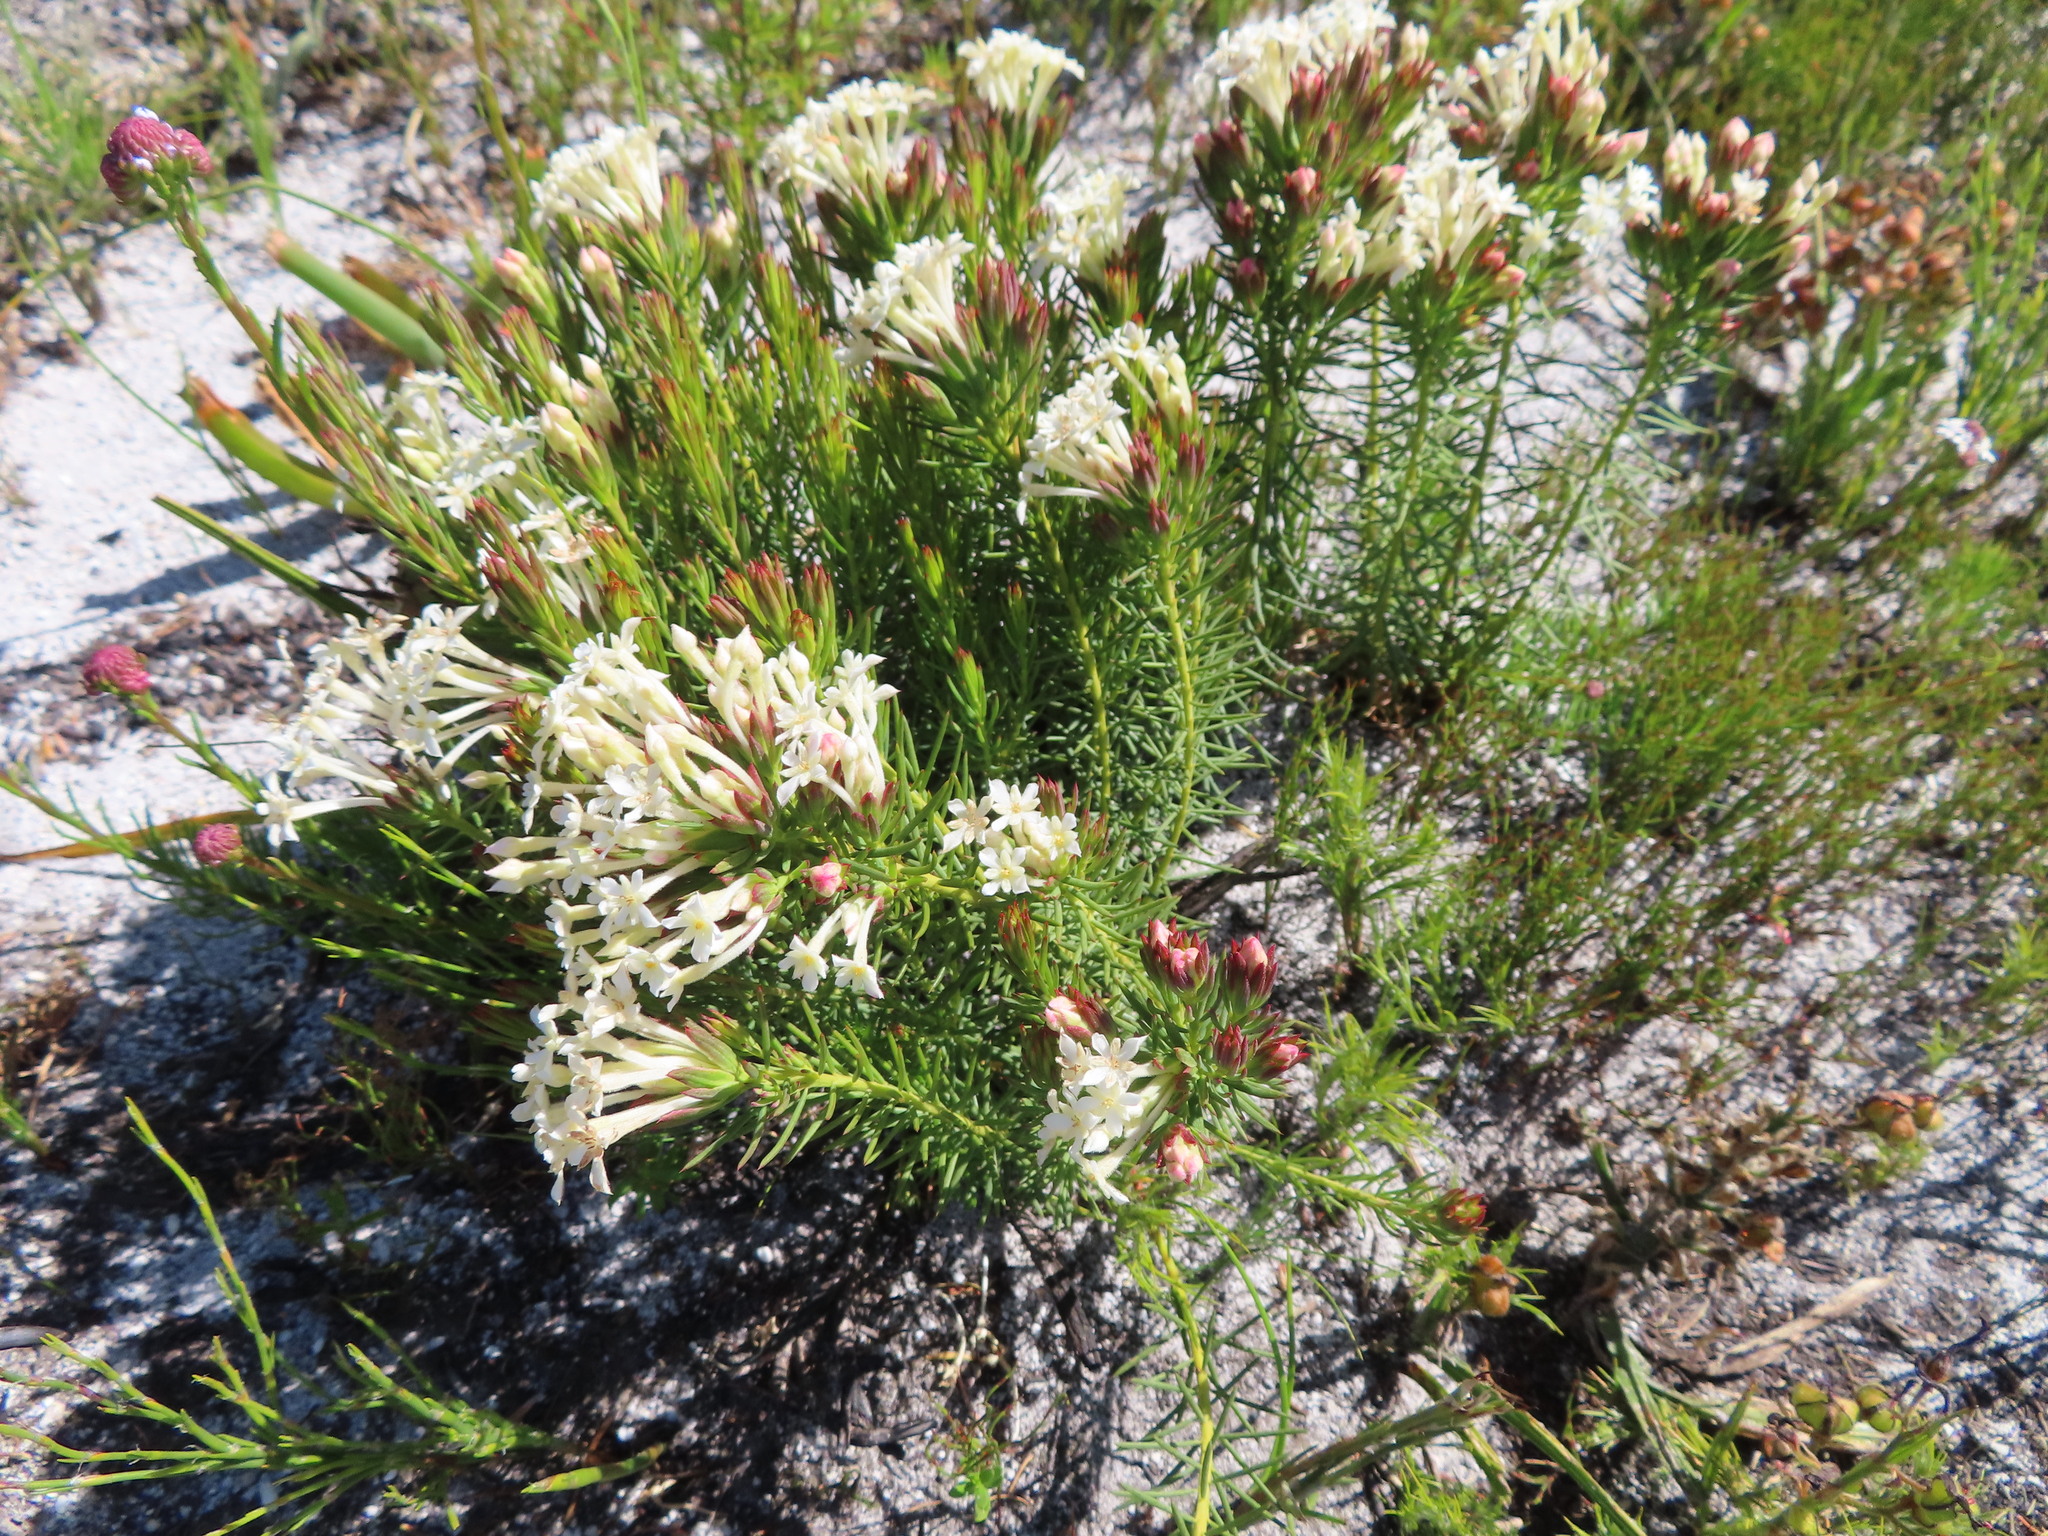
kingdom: Plantae
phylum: Tracheophyta
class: Magnoliopsida
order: Malvales
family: Thymelaeaceae
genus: Gnidia
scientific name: Gnidia pinifolia
